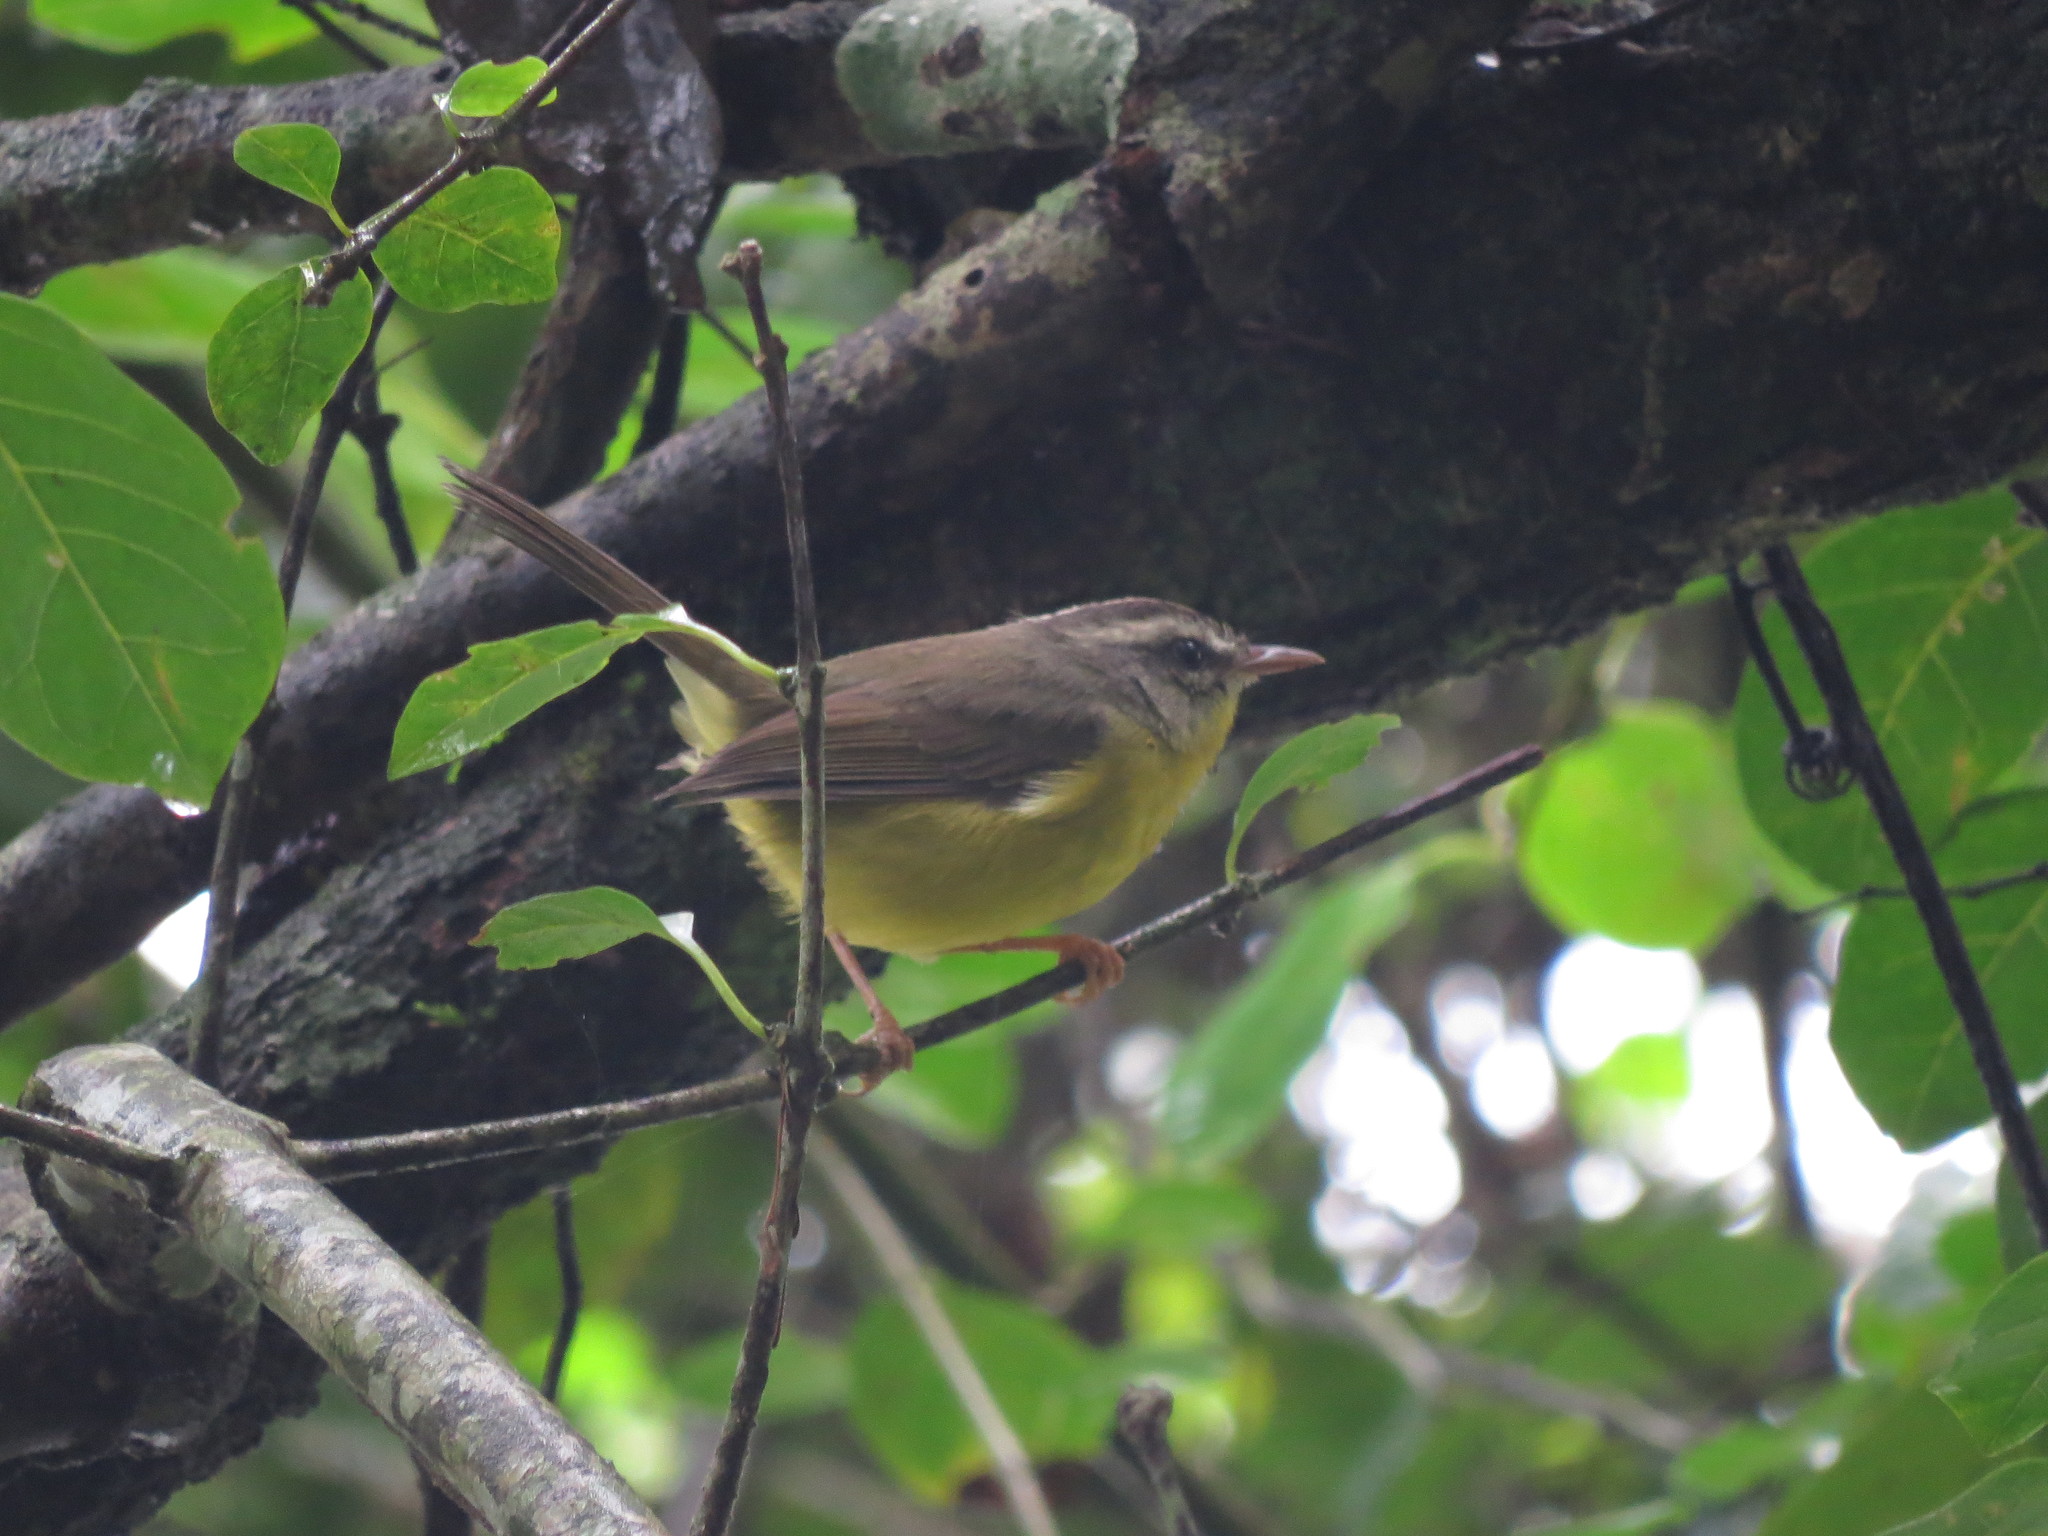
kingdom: Animalia
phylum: Chordata
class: Aves
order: Passeriformes
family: Parulidae
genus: Basileuterus
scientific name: Basileuterus culicivorus
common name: Golden-crowned warbler
